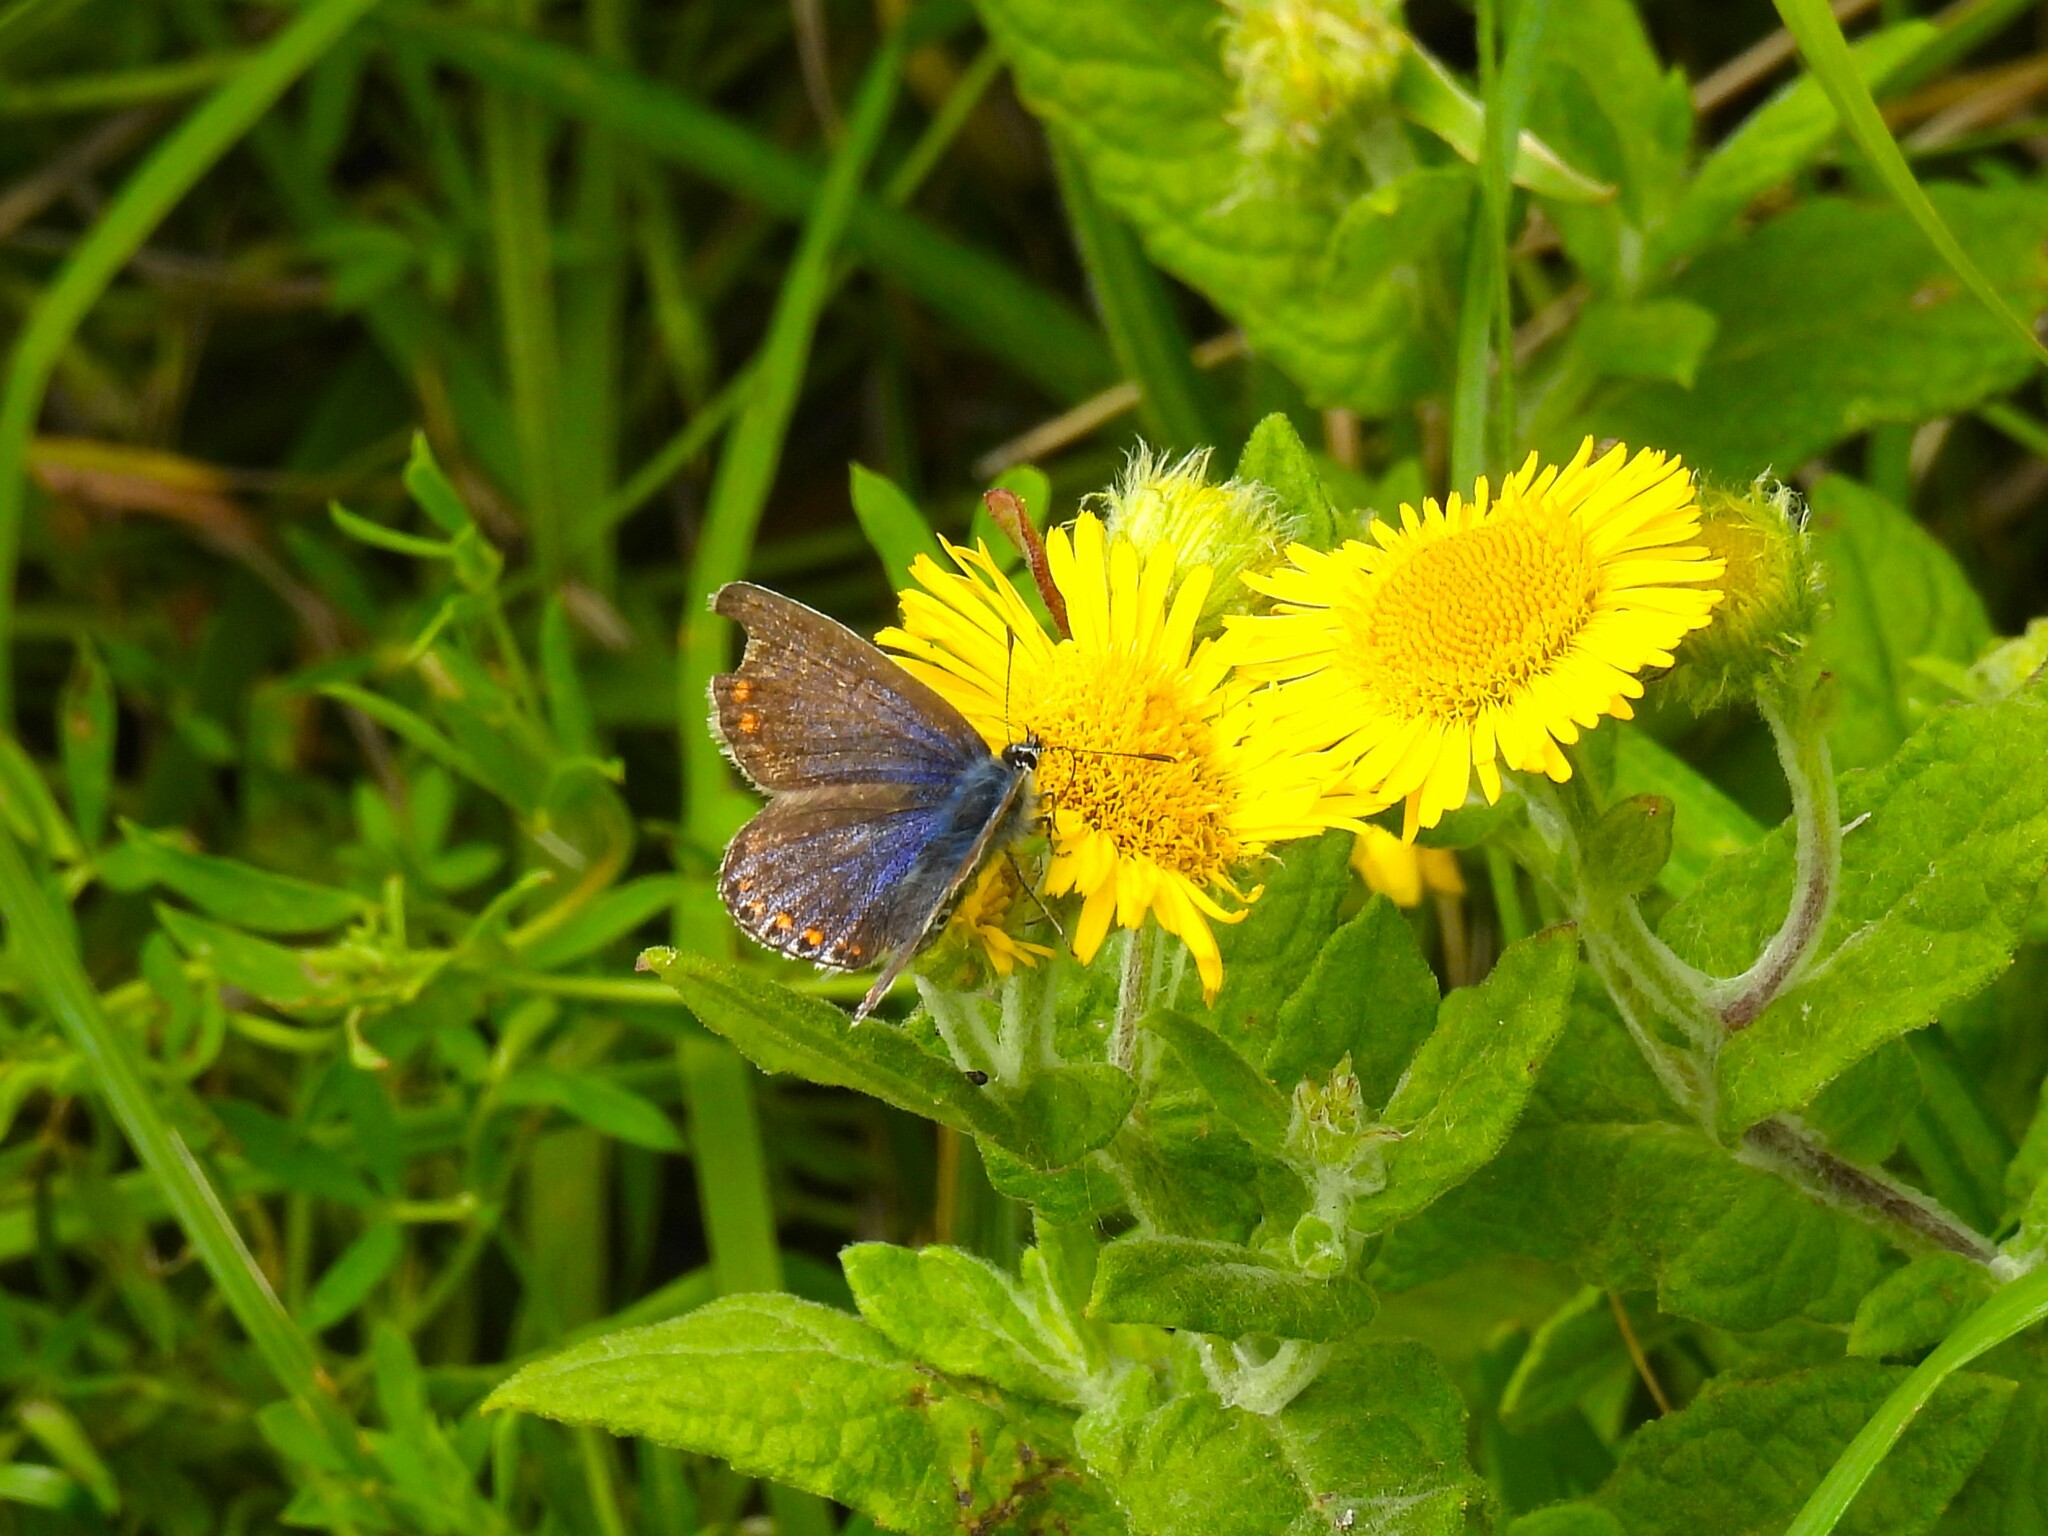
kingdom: Animalia
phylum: Arthropoda
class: Insecta
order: Lepidoptera
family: Lycaenidae
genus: Polyommatus
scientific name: Polyommatus icarus
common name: Common blue
